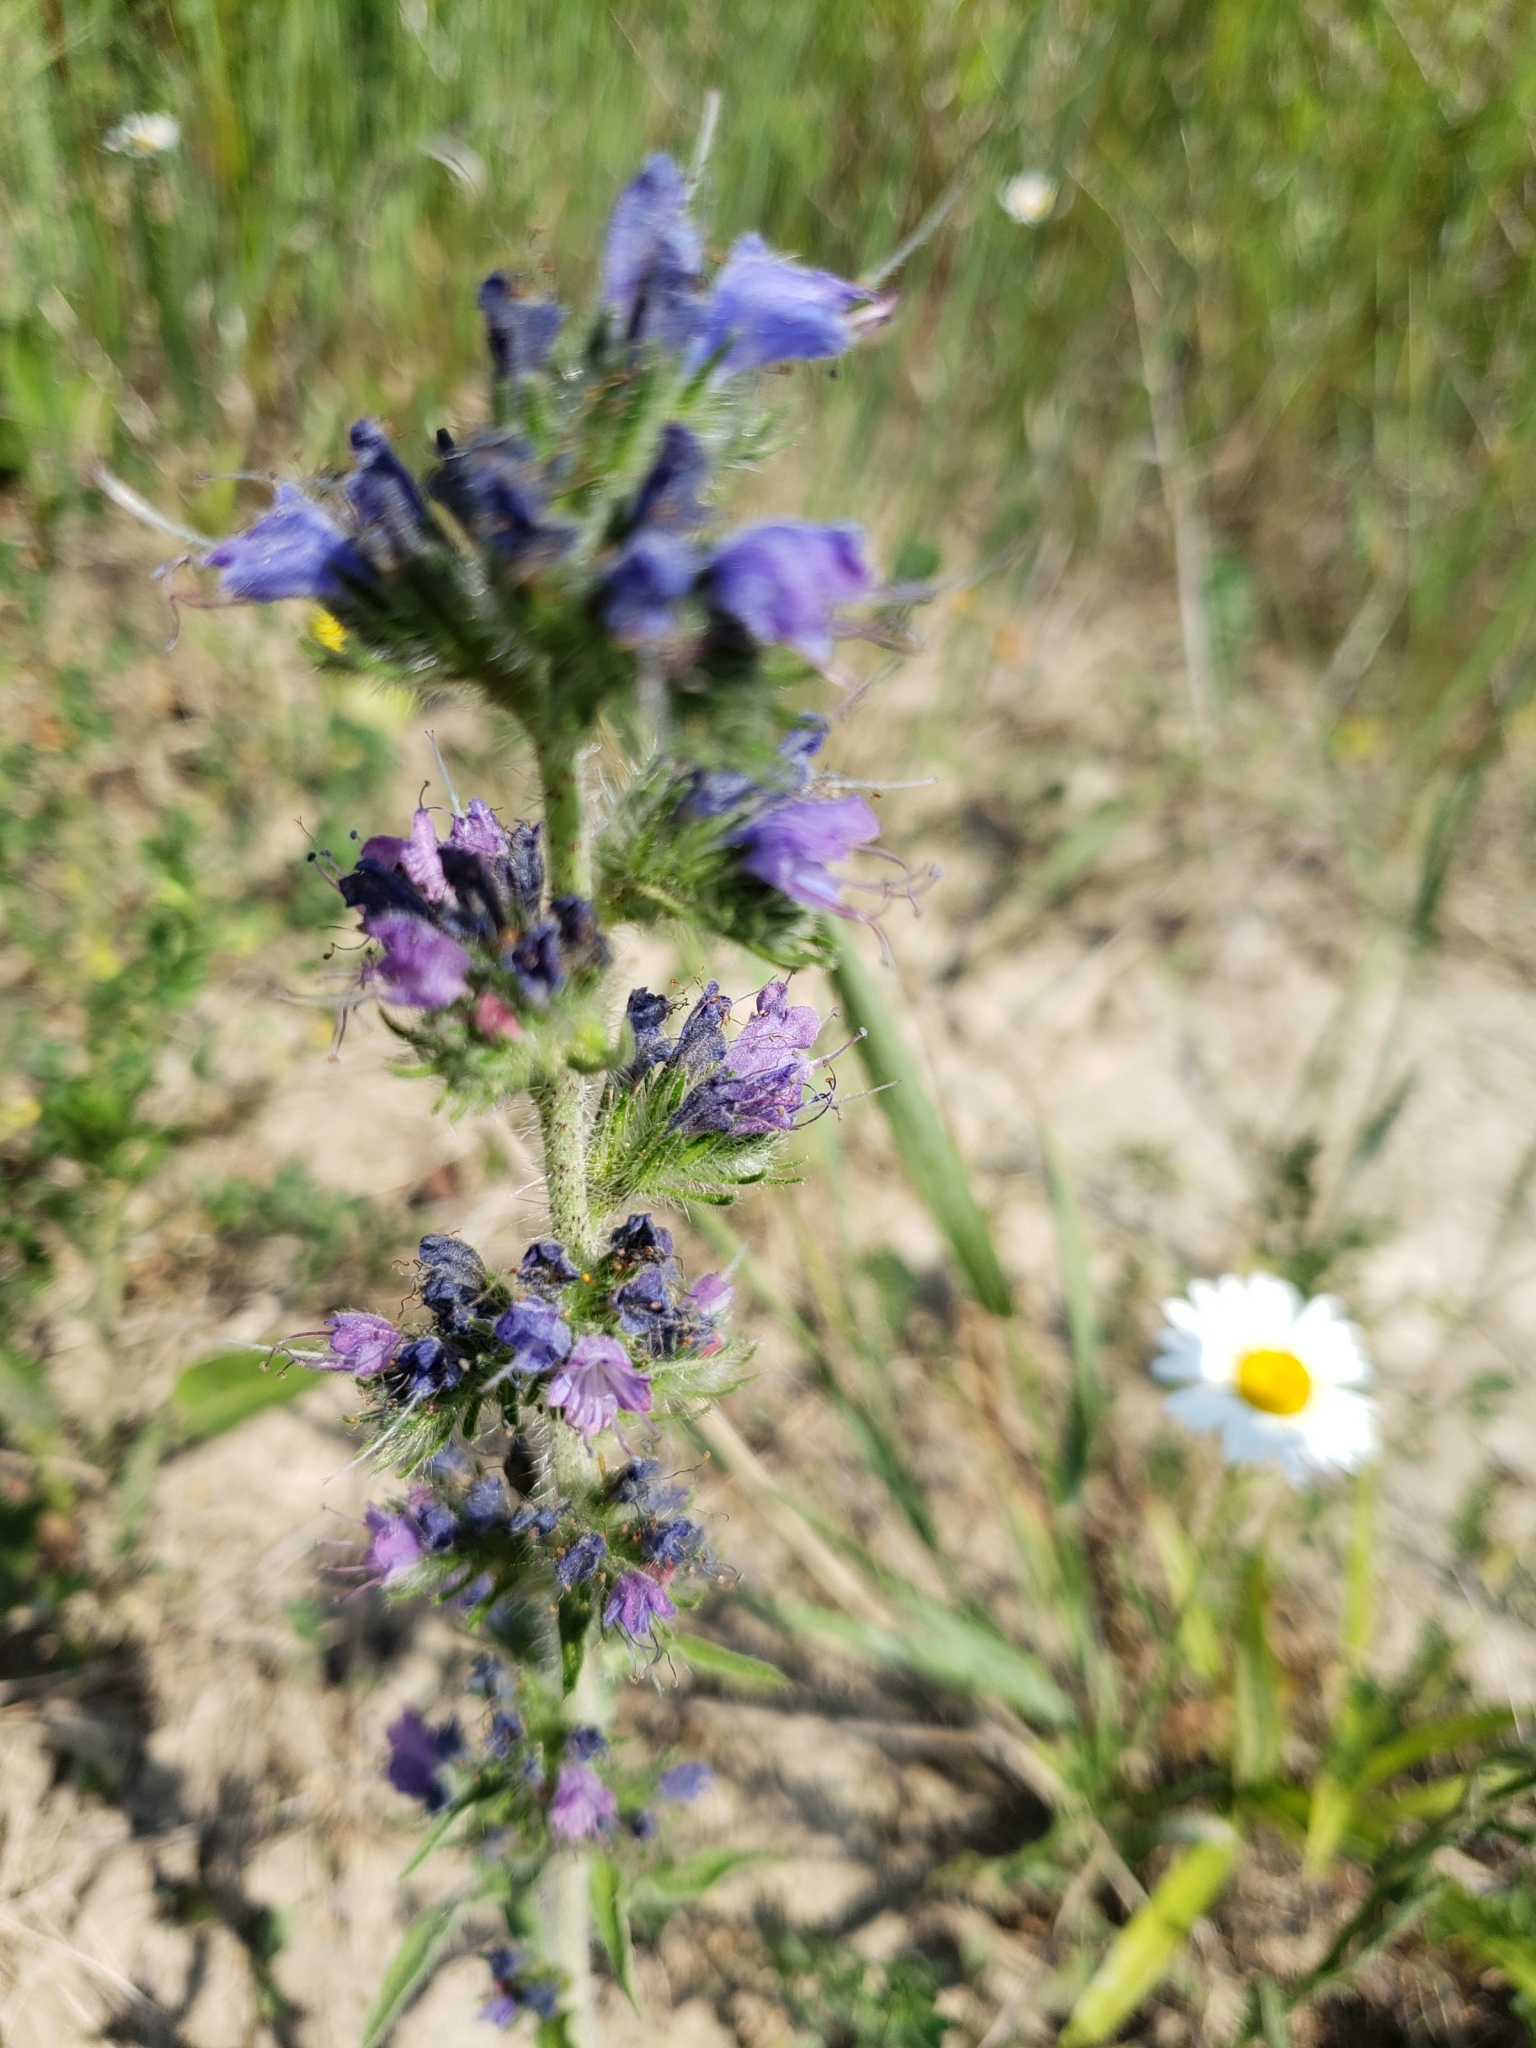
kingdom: Plantae
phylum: Tracheophyta
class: Magnoliopsida
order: Boraginales
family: Boraginaceae
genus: Echium
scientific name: Echium vulgare
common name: Common viper's bugloss
